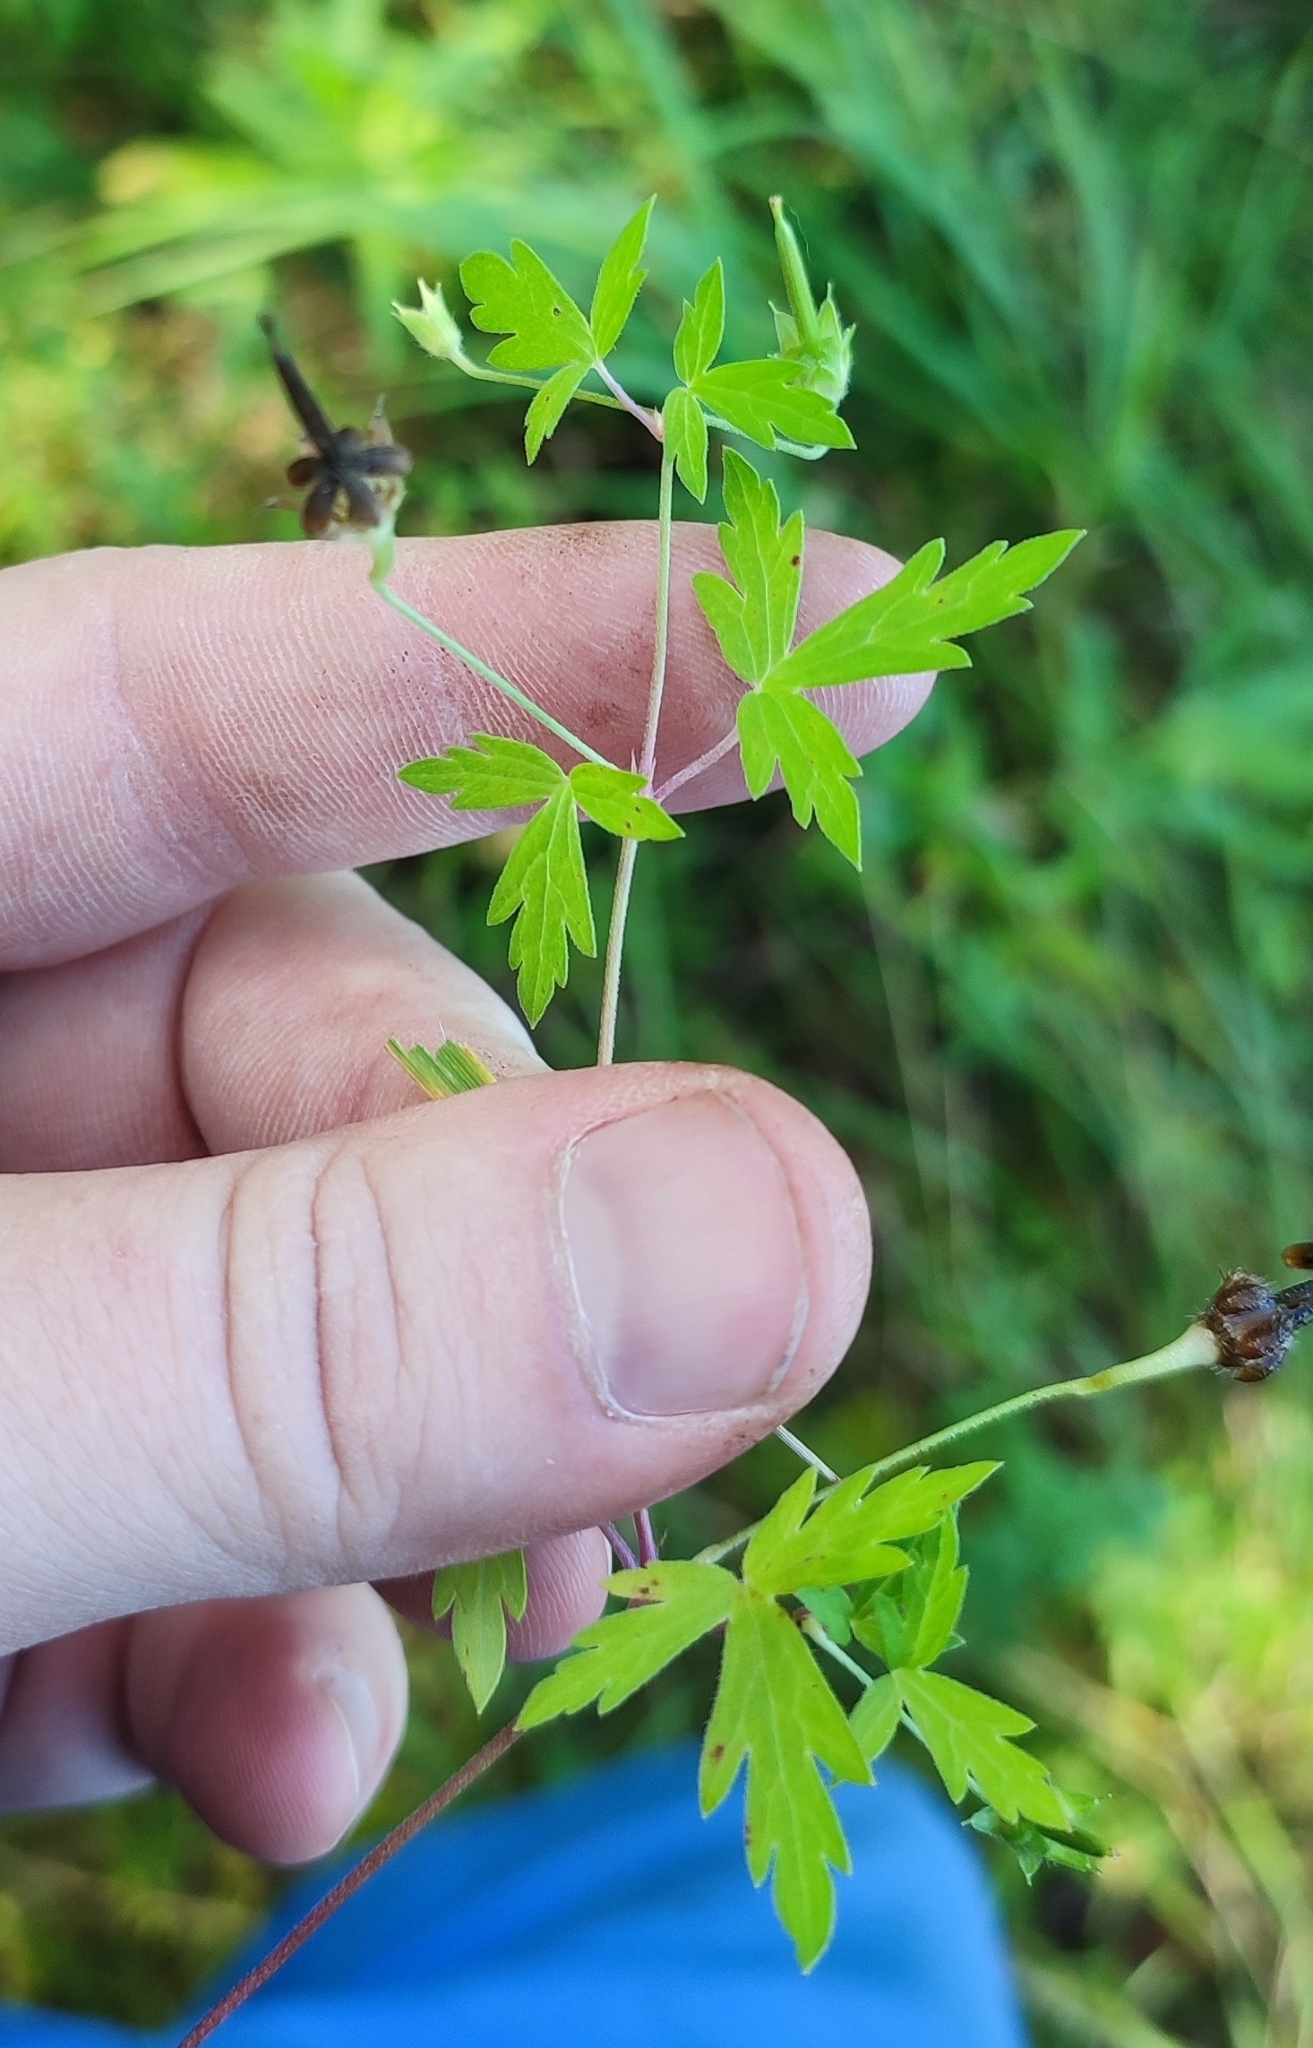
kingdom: Plantae
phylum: Tracheophyta
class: Magnoliopsida
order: Geraniales
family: Geraniaceae
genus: Geranium
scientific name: Geranium sibiricum
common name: Siberian crane's-bill
